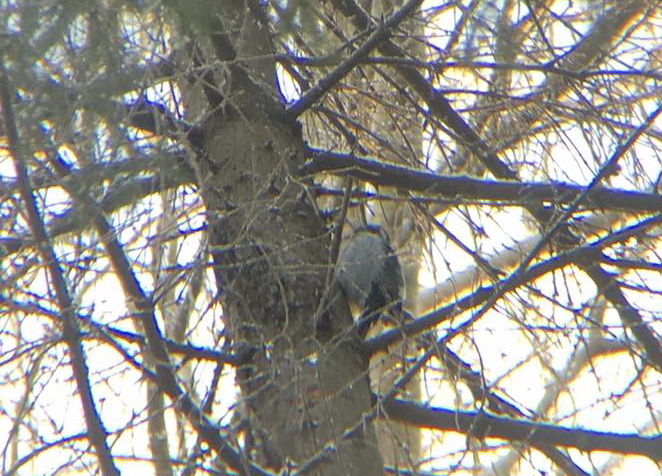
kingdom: Animalia
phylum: Chordata
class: Aves
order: Piciformes
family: Picidae
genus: Picoides
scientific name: Picoides tridactylus
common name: Eurasian three-toed woodpecker
